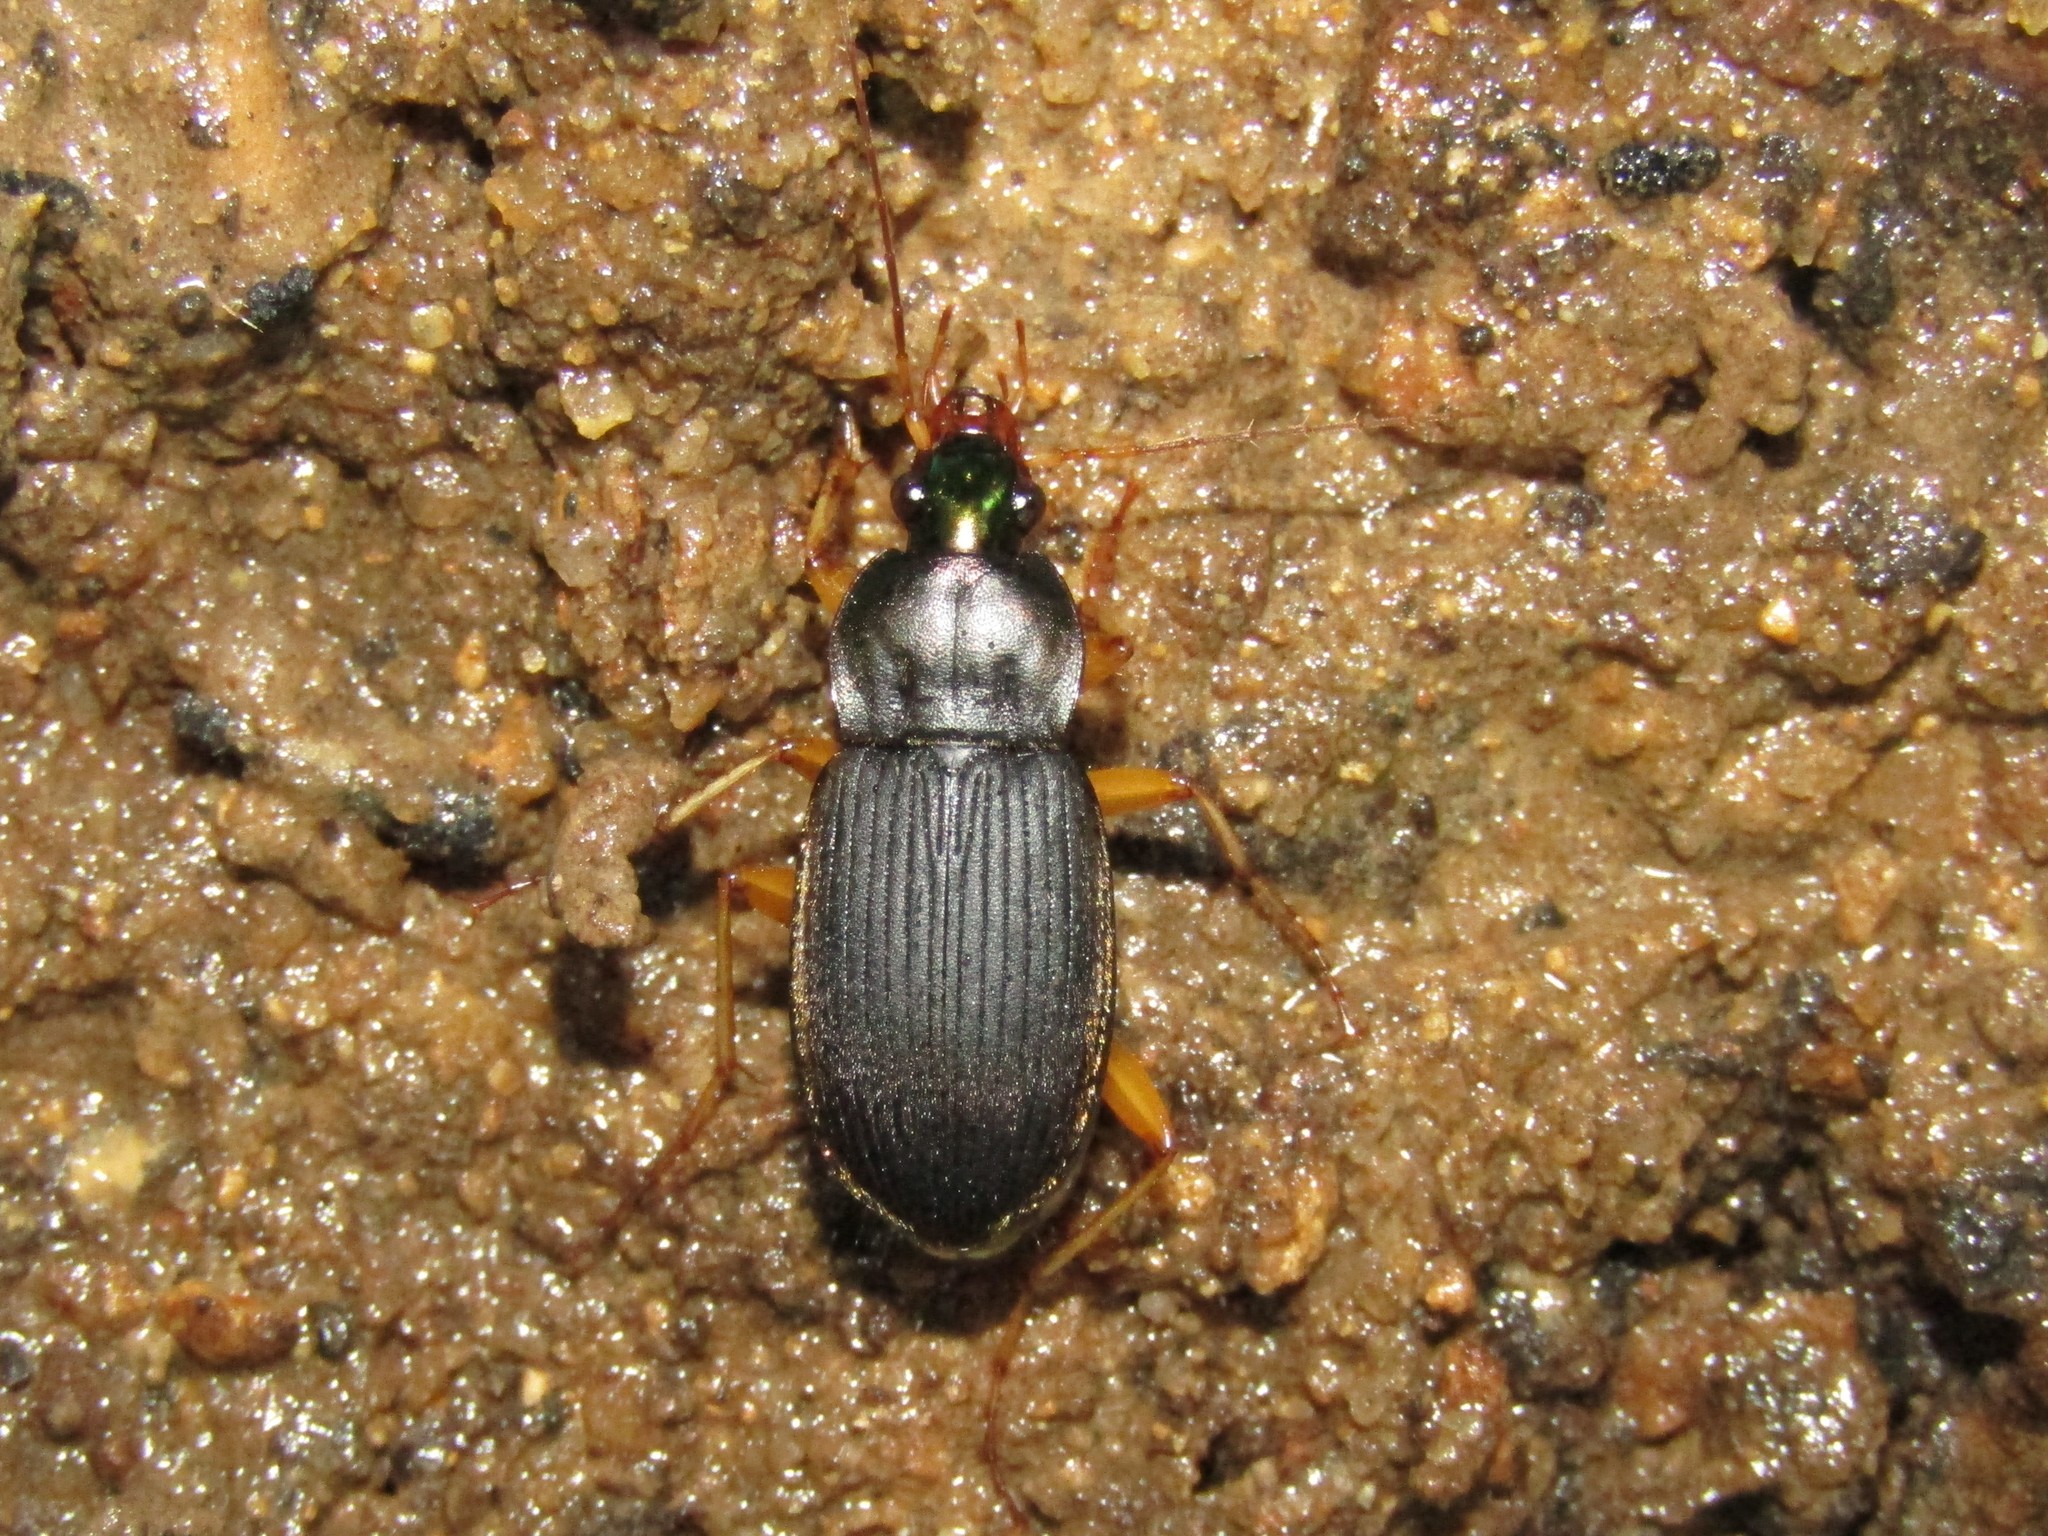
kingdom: Animalia
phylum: Arthropoda
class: Insecta
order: Coleoptera
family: Carabidae
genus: Chlaenius
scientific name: Chlaenius impunctifrons
